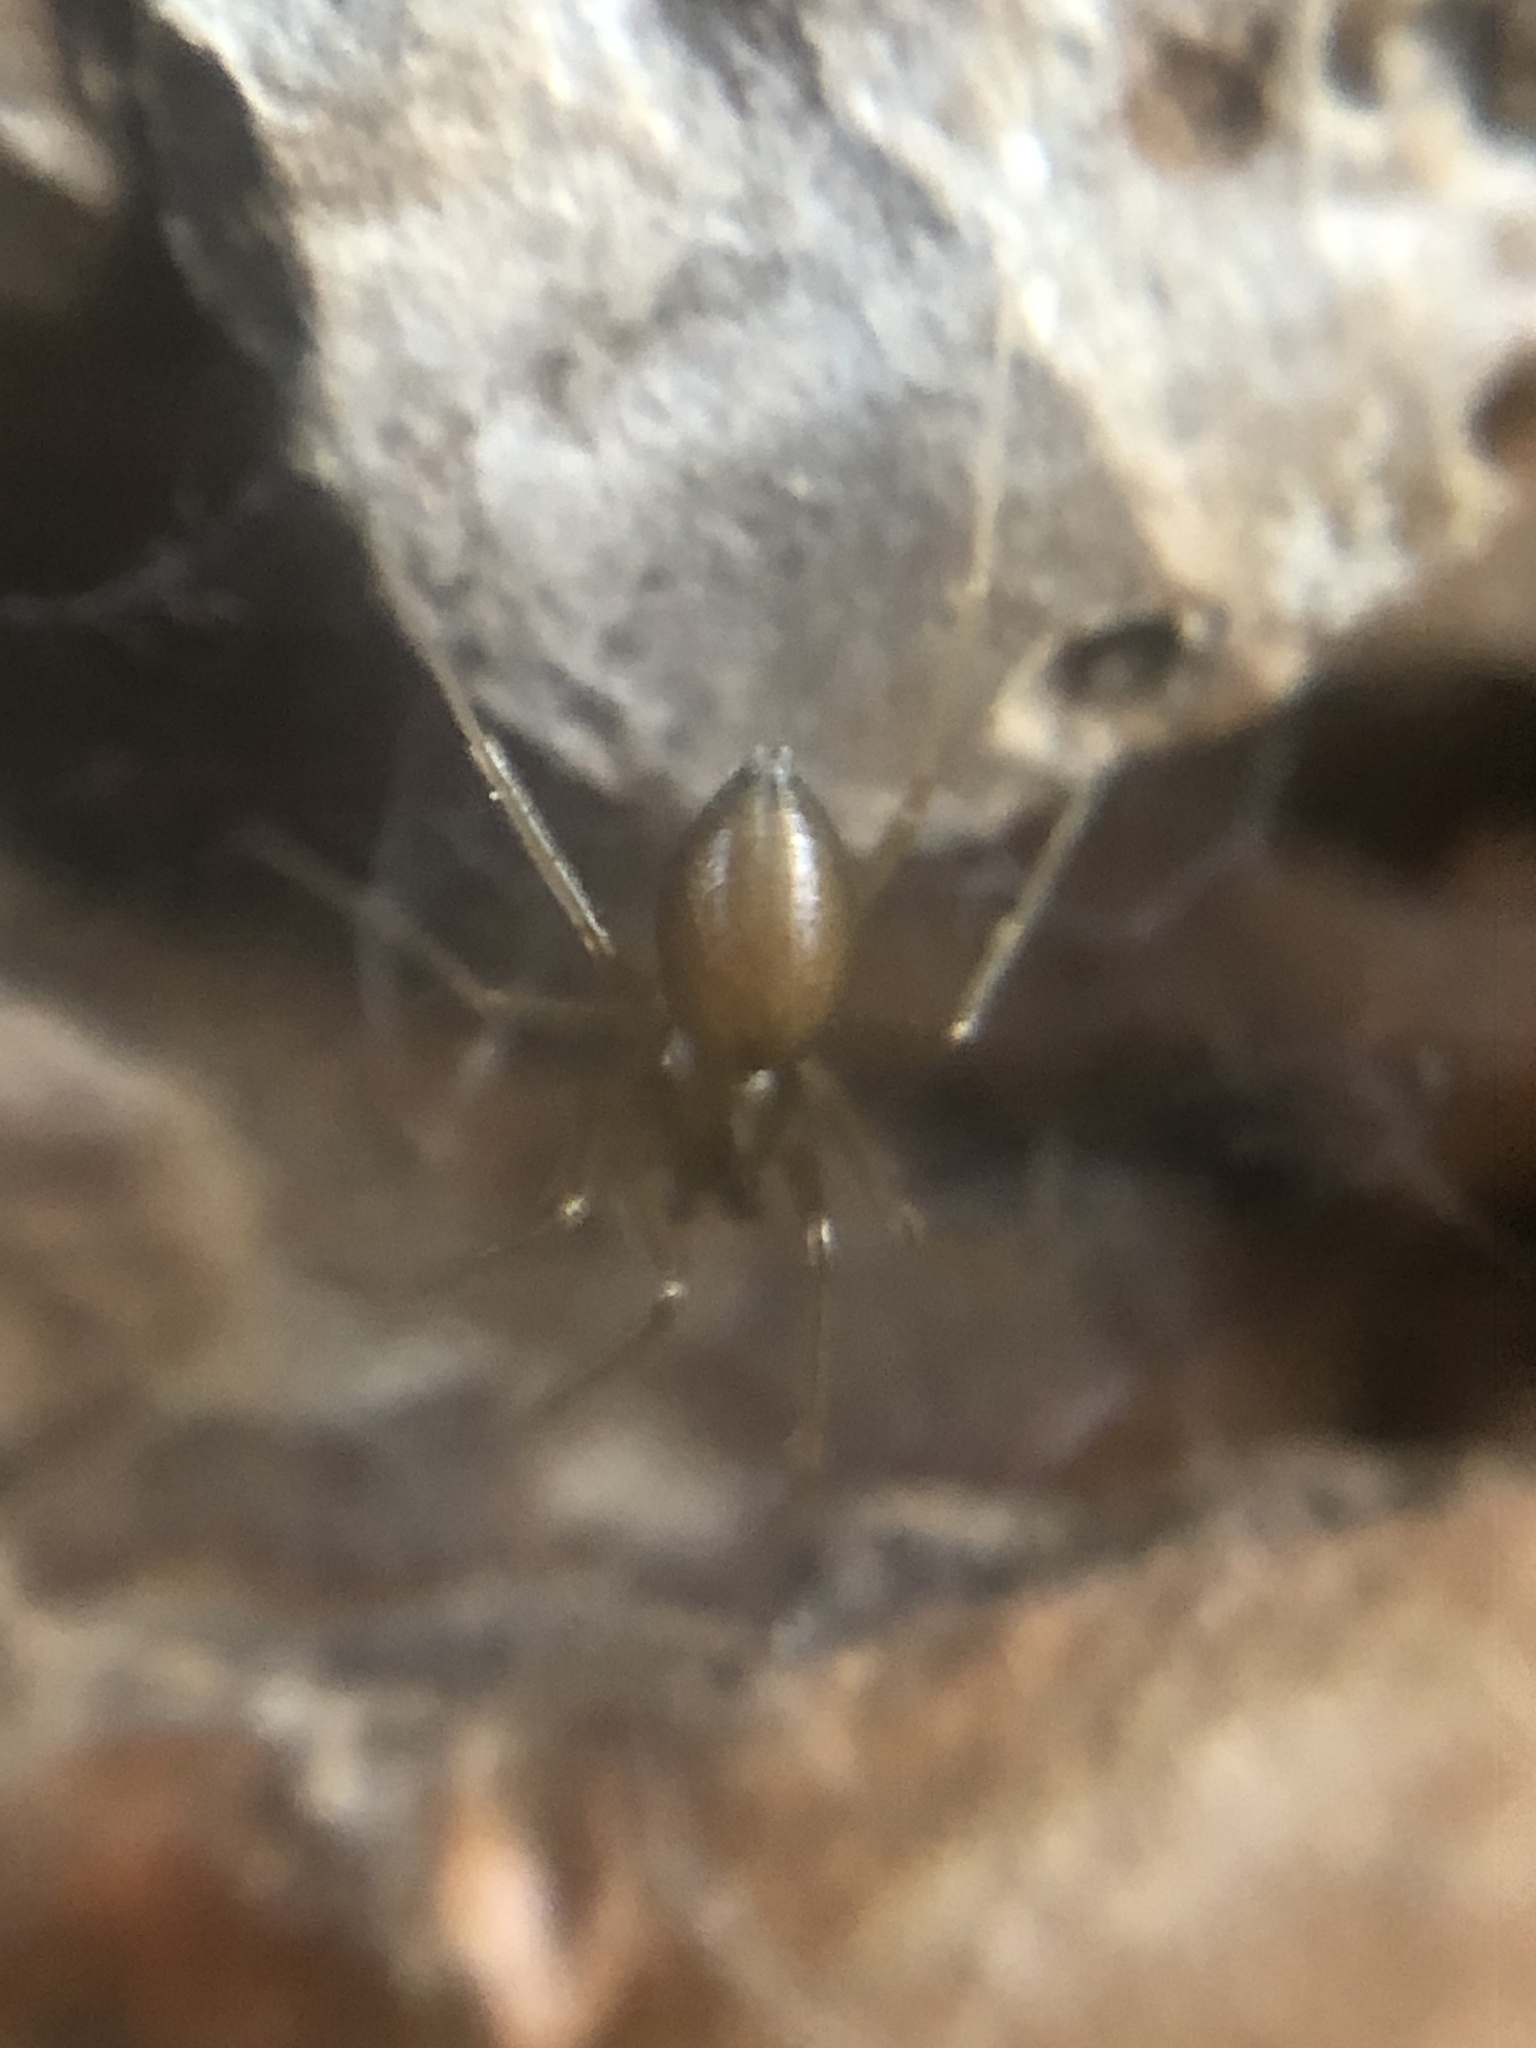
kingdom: Animalia
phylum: Arthropoda
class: Arachnida
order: Araneae
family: Linyphiidae
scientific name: Linyphiidae
